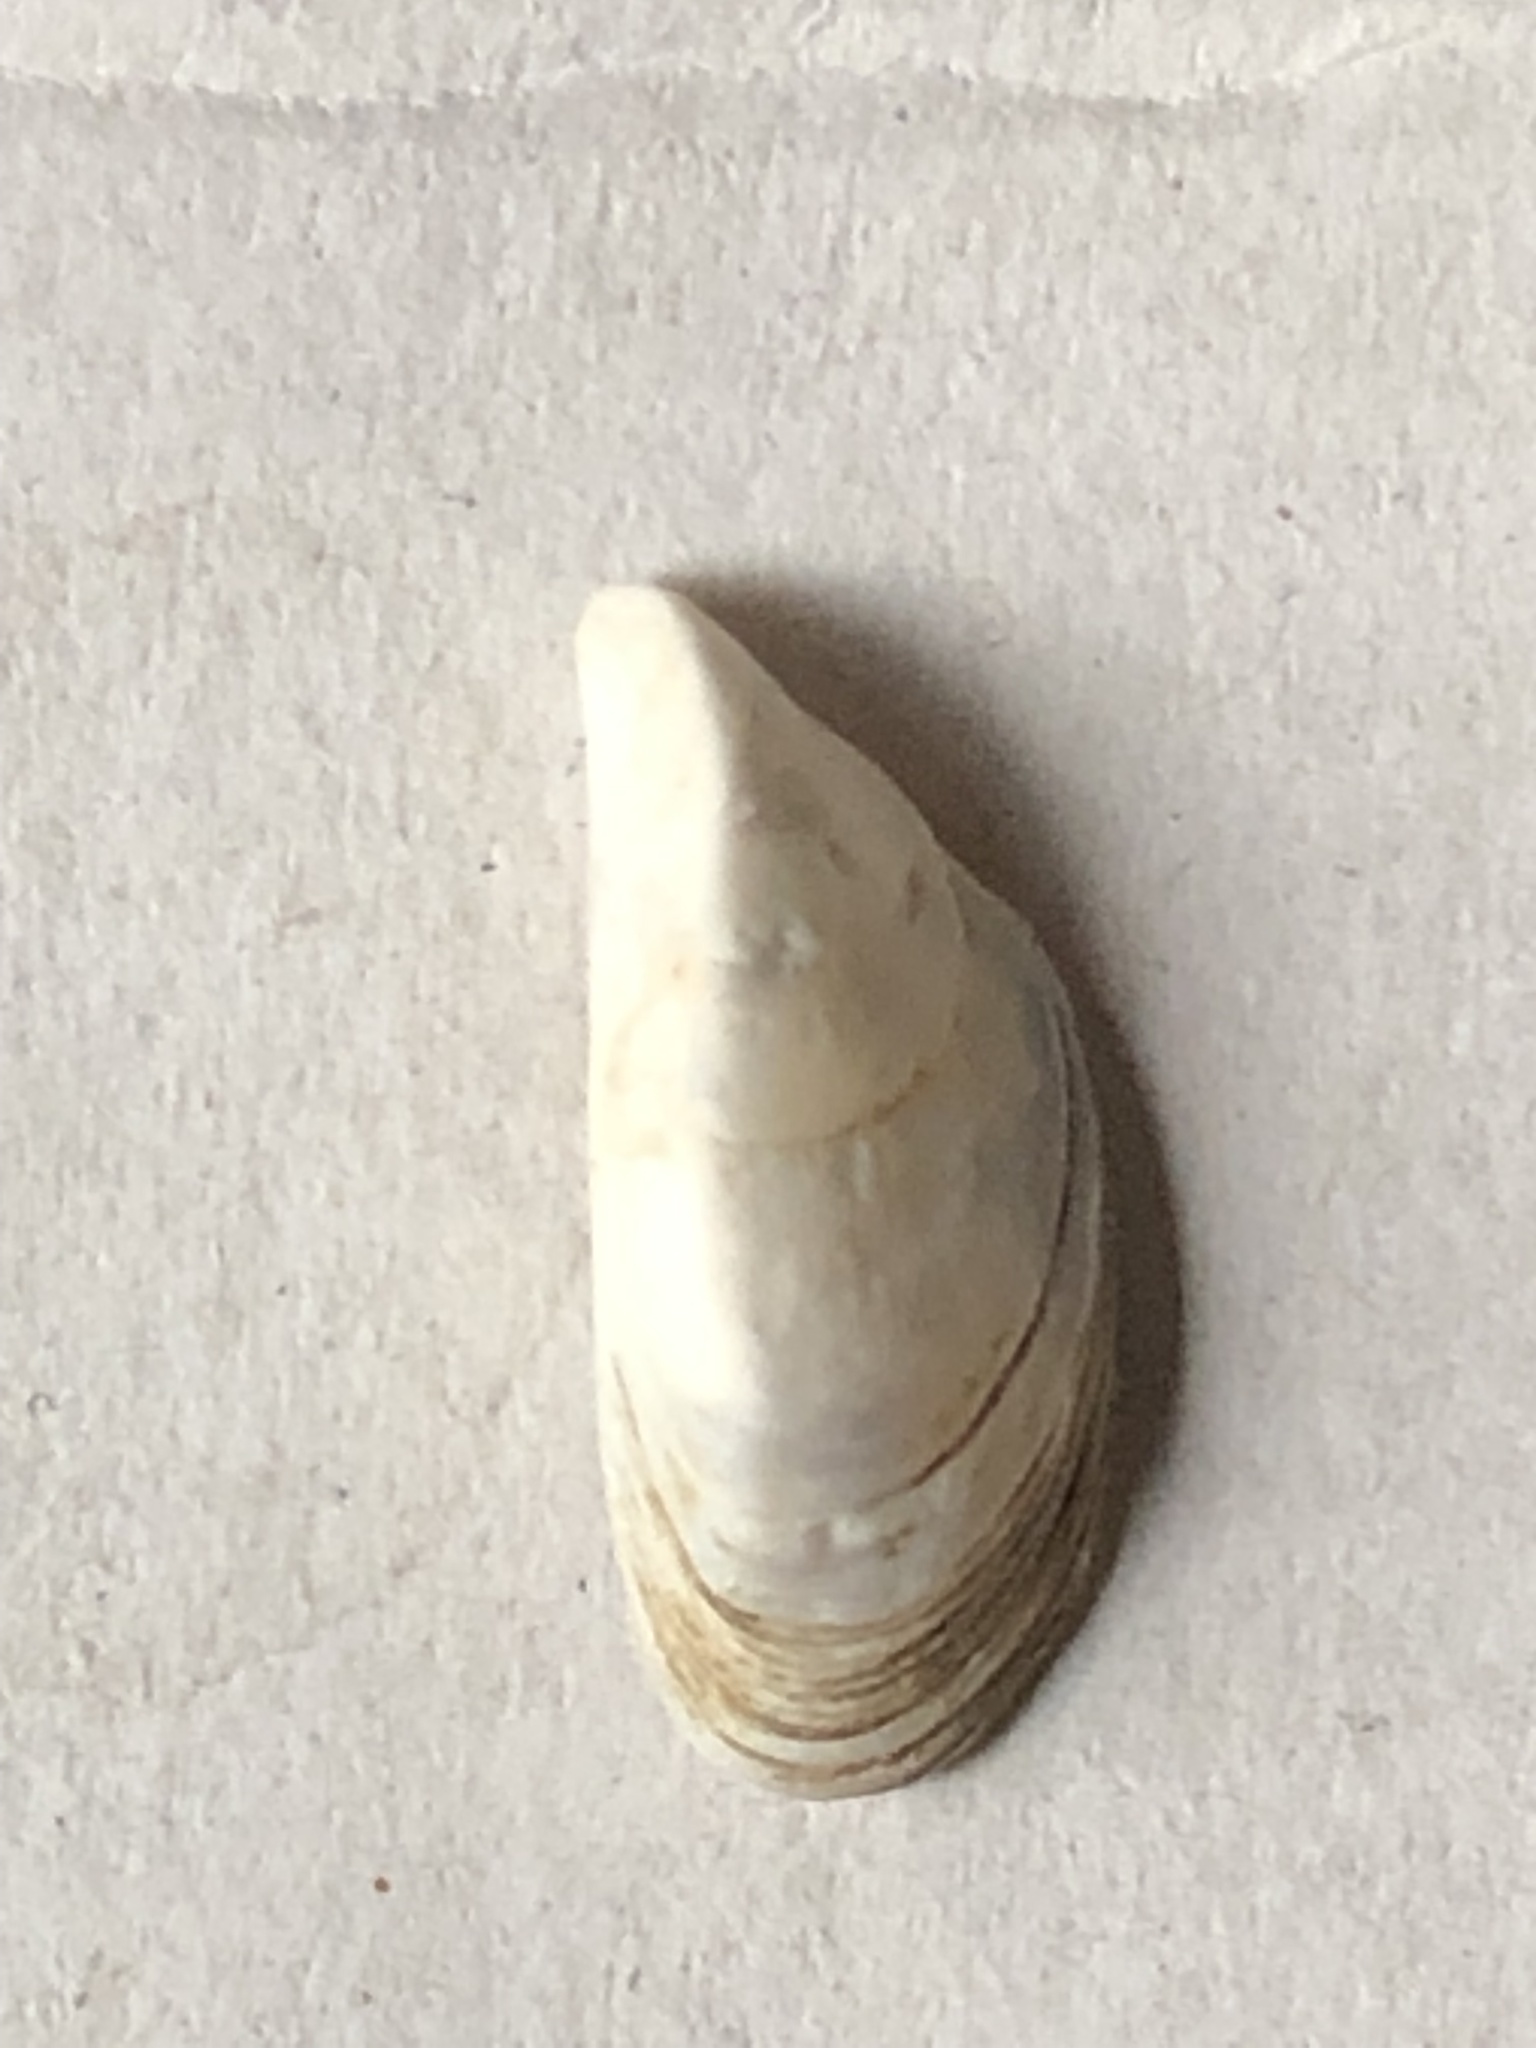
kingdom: Animalia
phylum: Mollusca
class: Bivalvia
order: Myida
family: Dreissenidae
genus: Dreissena
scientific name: Dreissena polymorpha
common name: Zebra mussel
